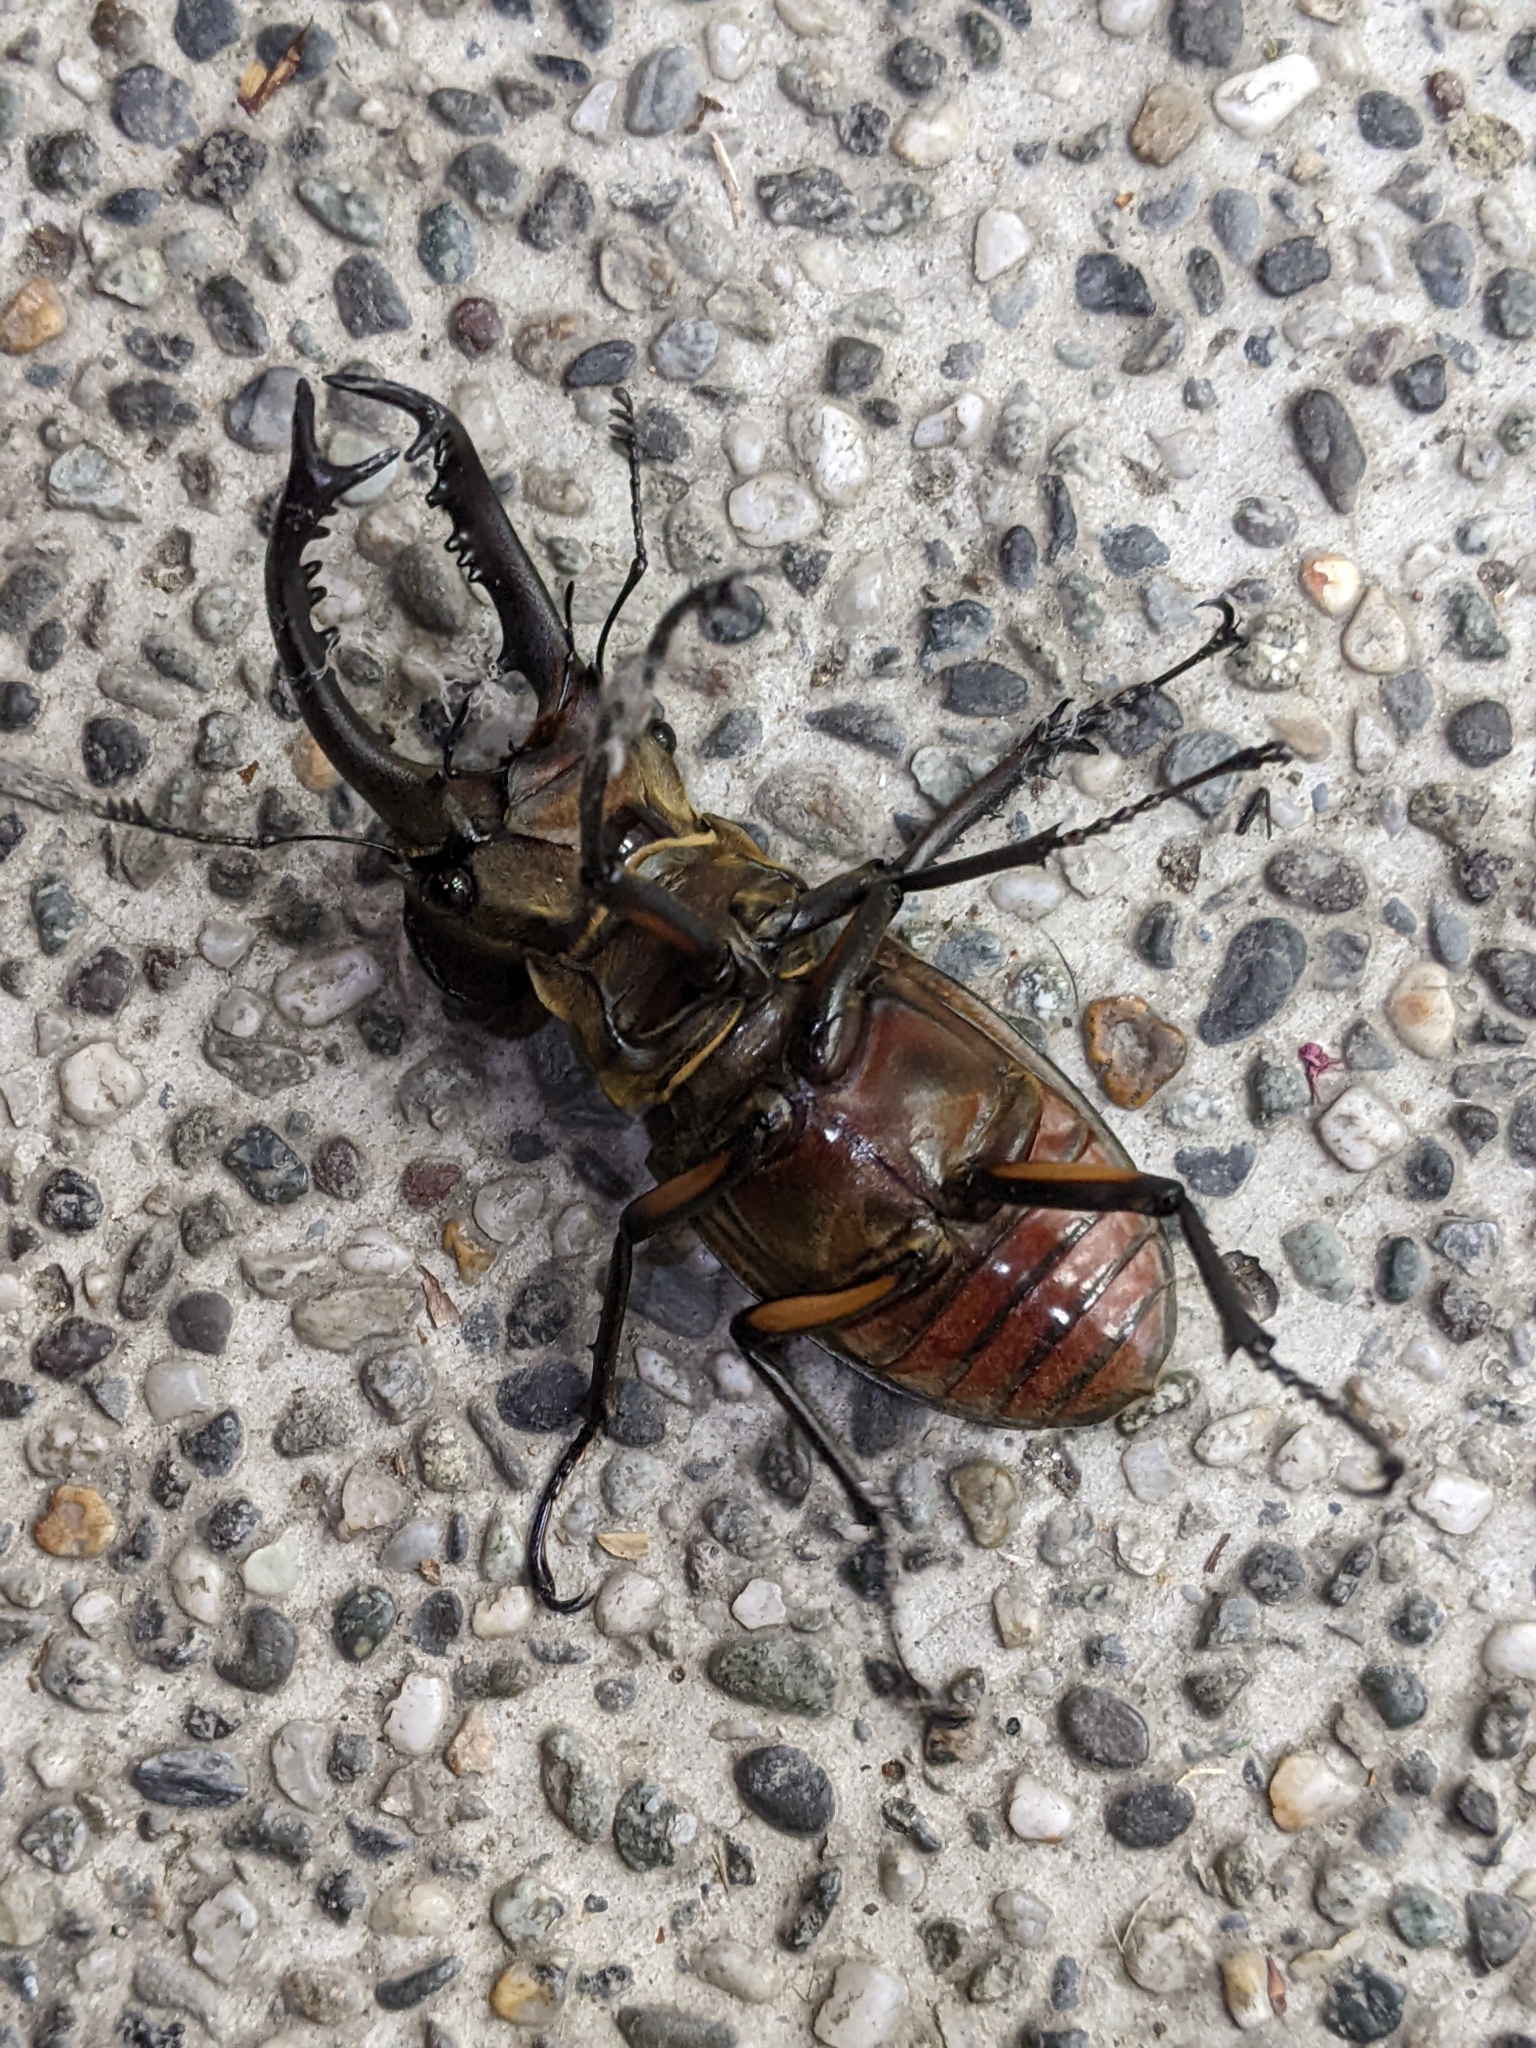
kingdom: Animalia
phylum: Arthropoda
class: Insecta
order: Coleoptera
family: Lucanidae
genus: Lucanus
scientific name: Lucanus maculifemoratus
